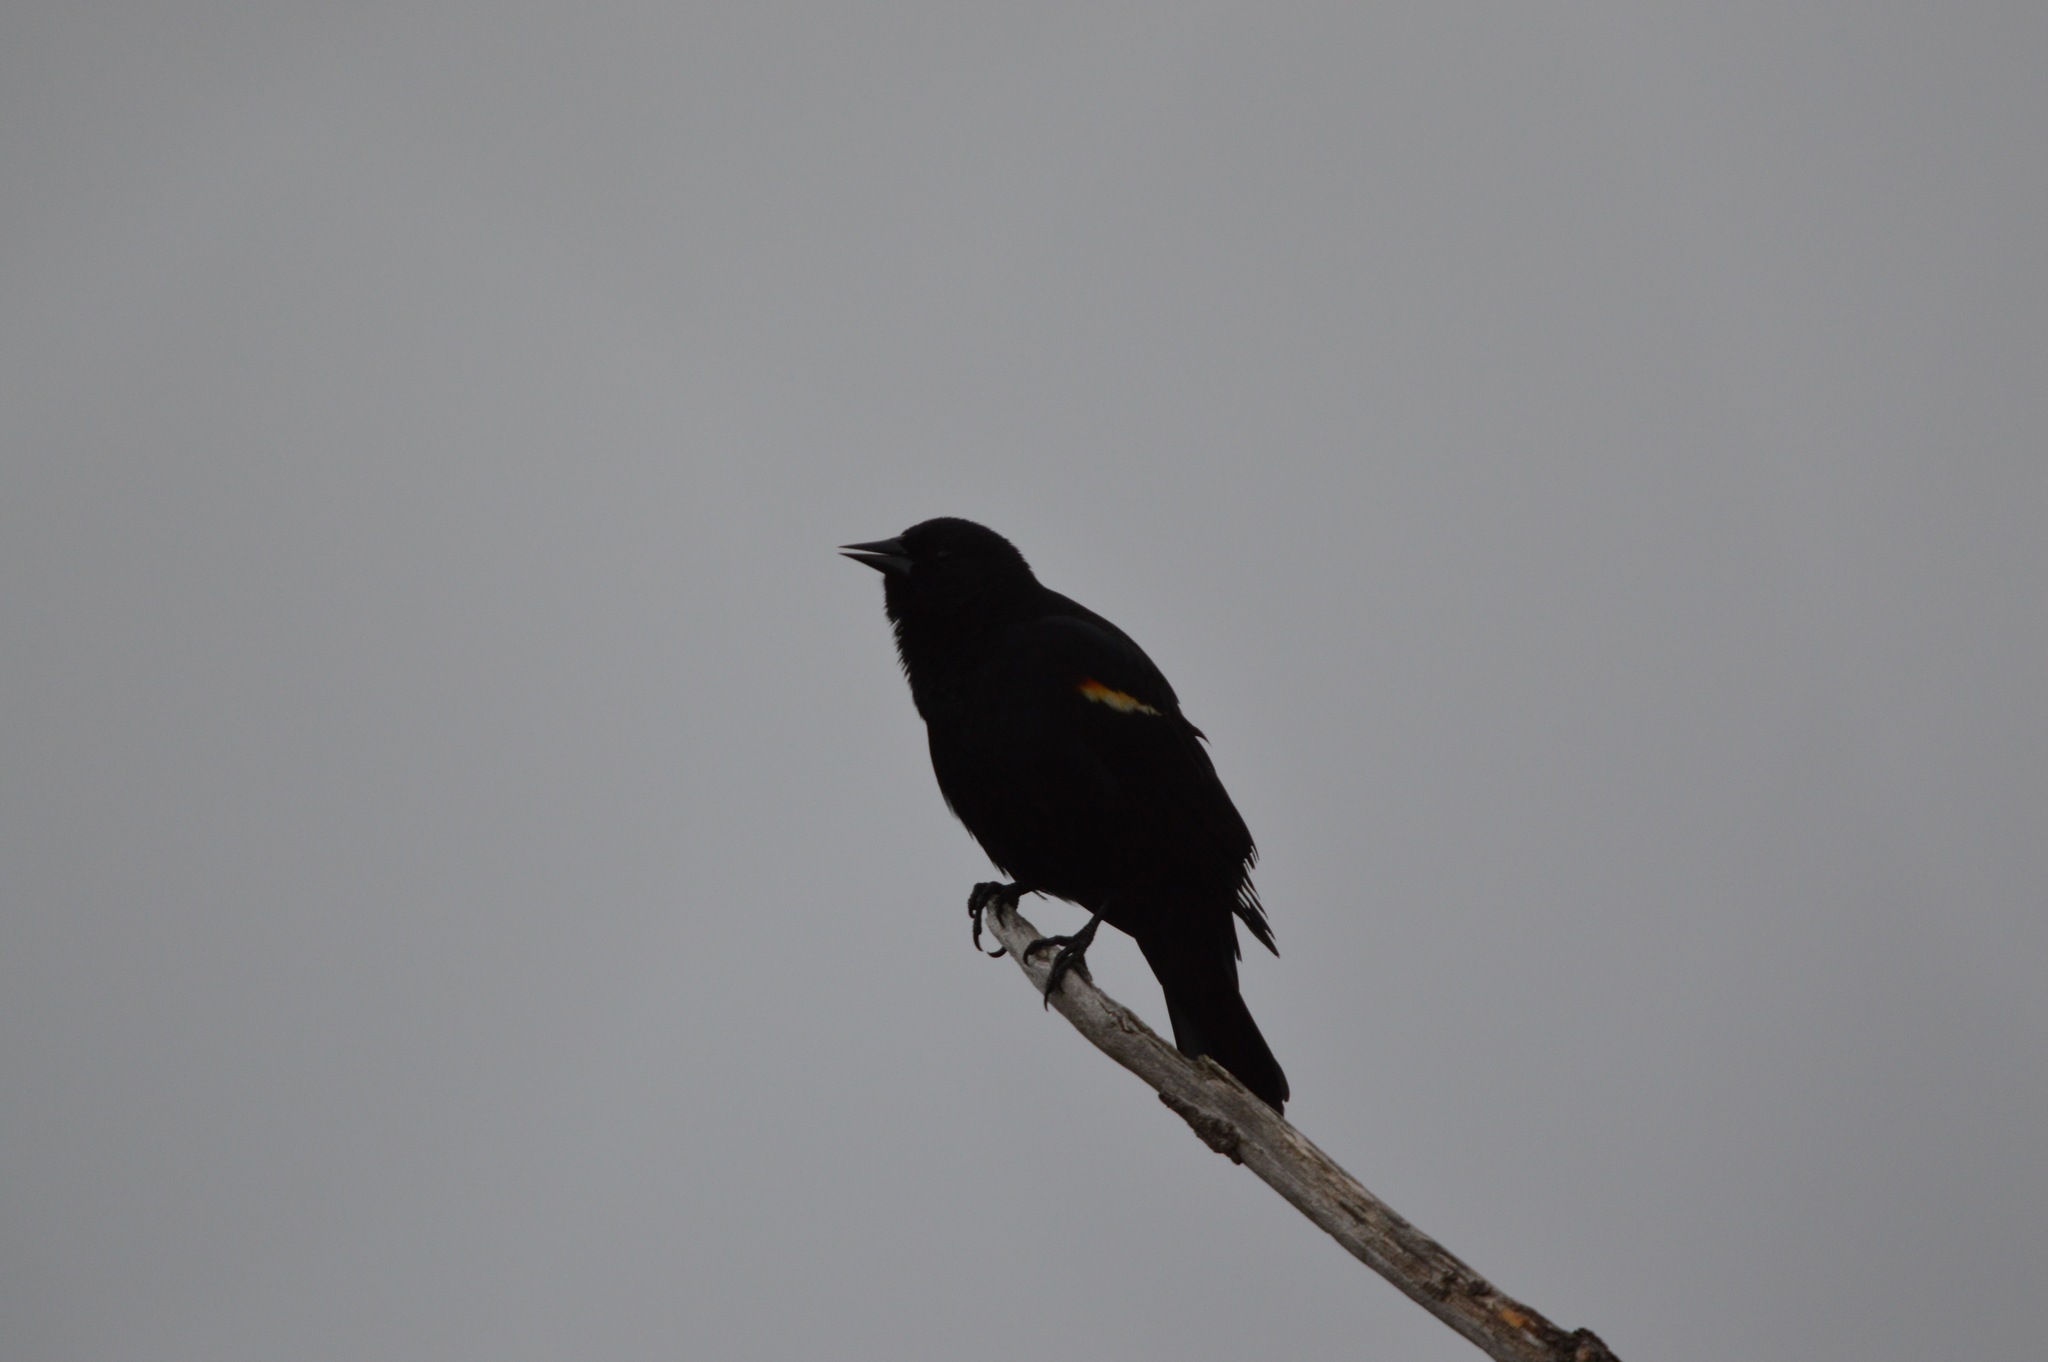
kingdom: Animalia
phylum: Chordata
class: Aves
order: Passeriformes
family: Icteridae
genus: Agelaius
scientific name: Agelaius phoeniceus
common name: Red-winged blackbird
